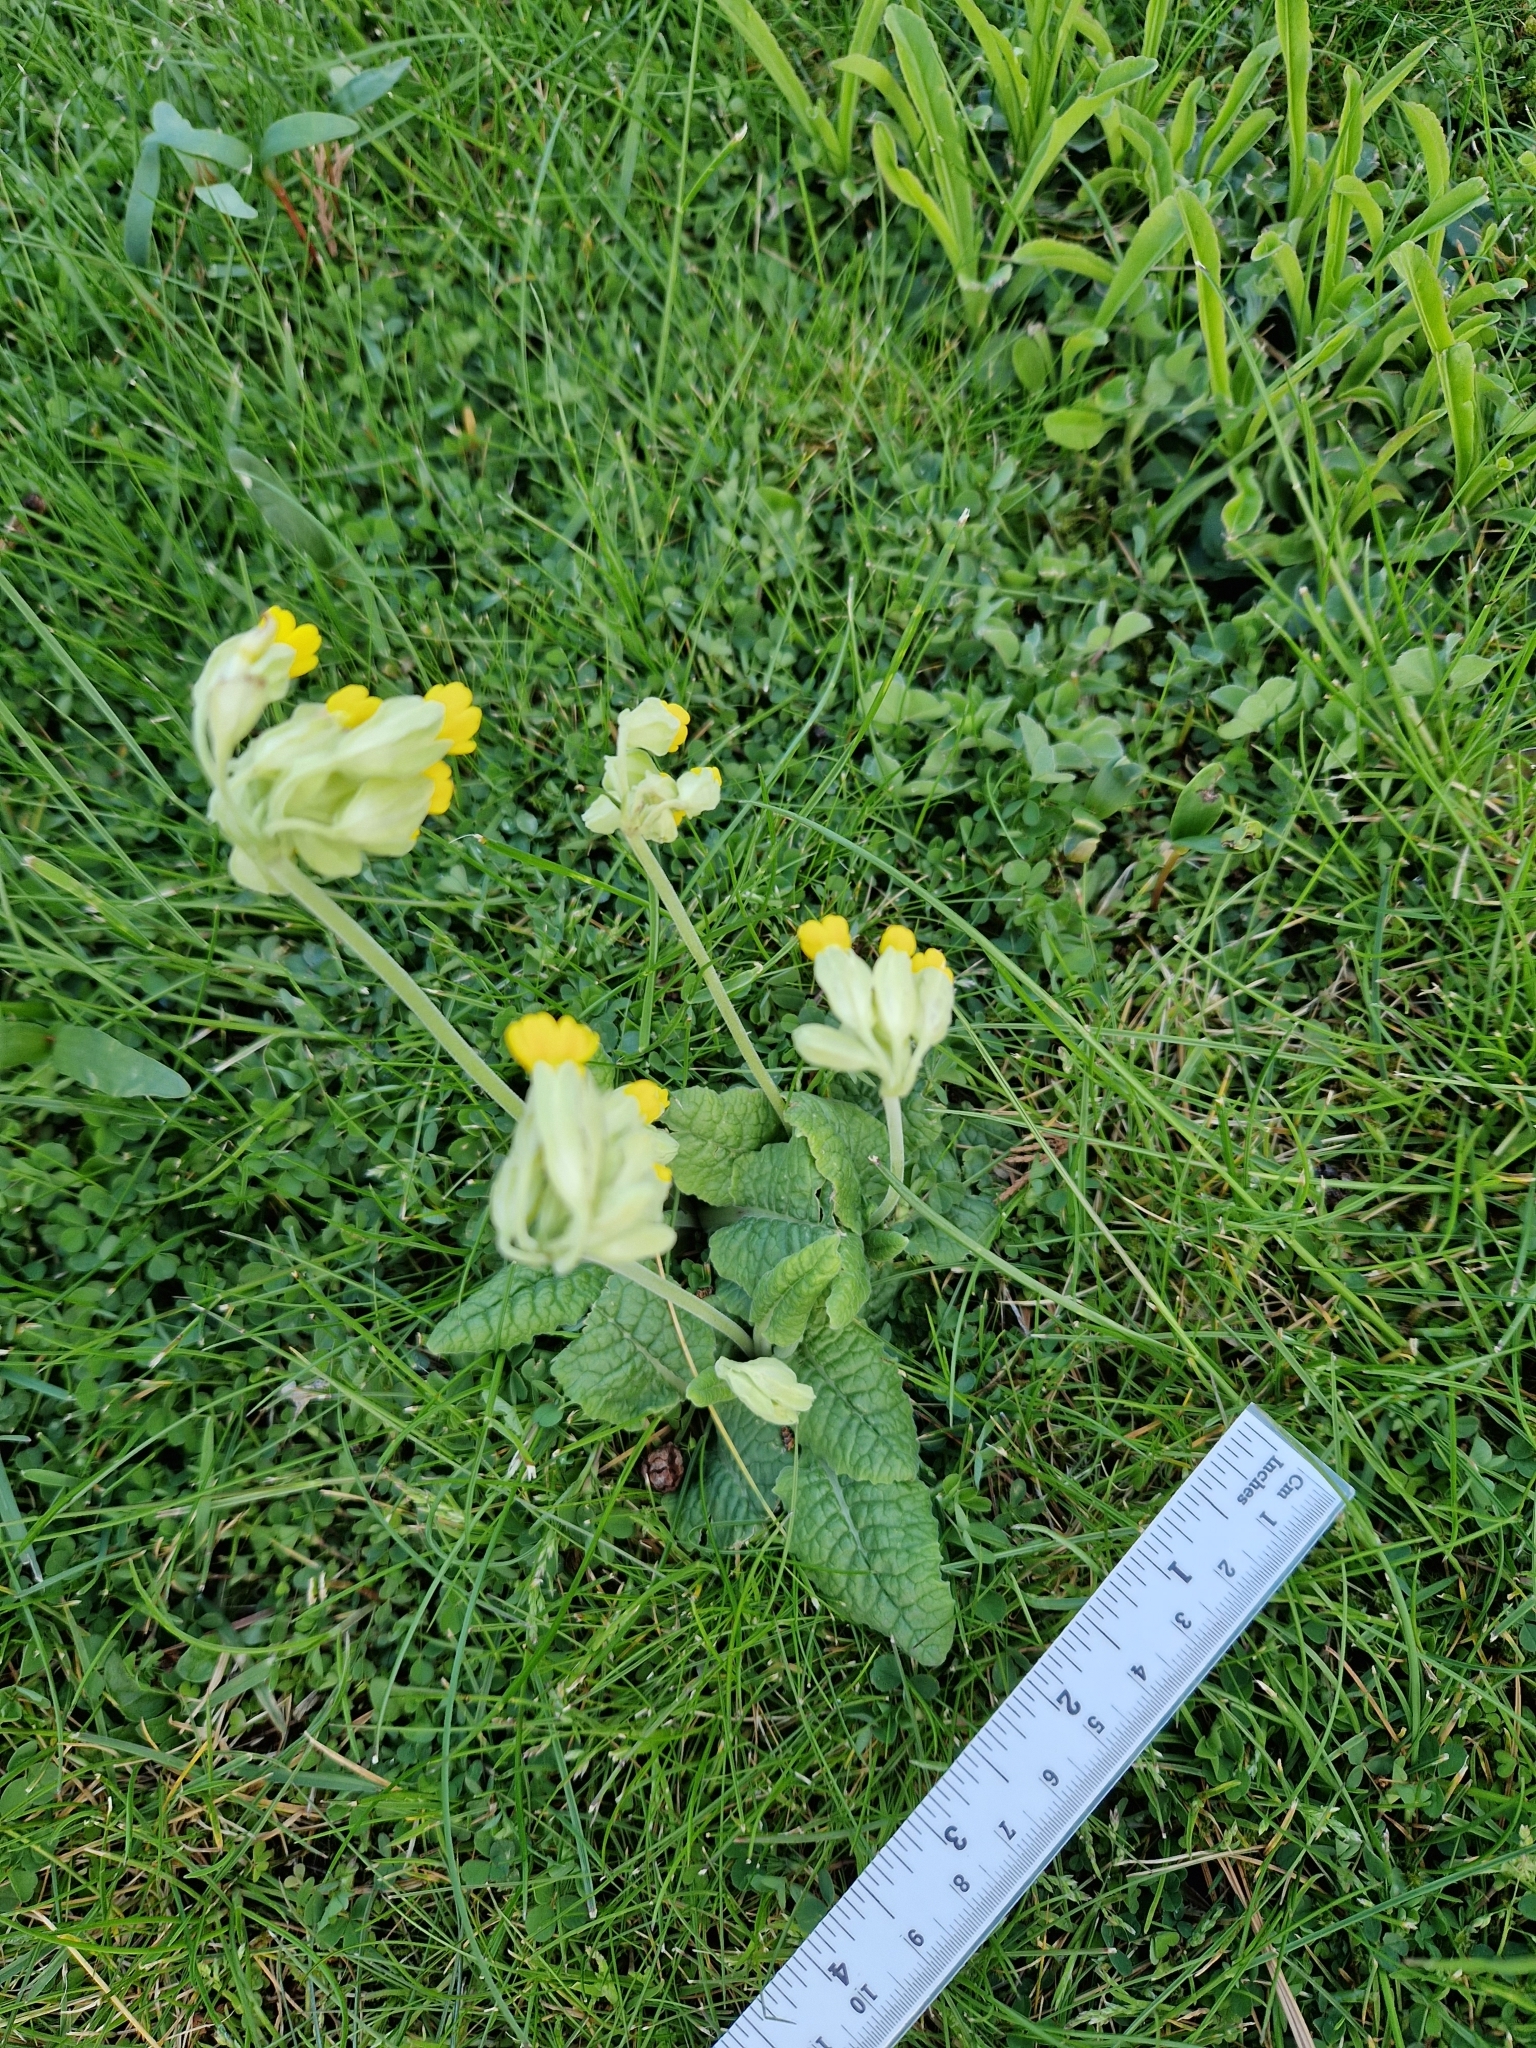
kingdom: Plantae
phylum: Tracheophyta
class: Magnoliopsida
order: Ericales
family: Primulaceae
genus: Primula
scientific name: Primula veris
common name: Cowslip
